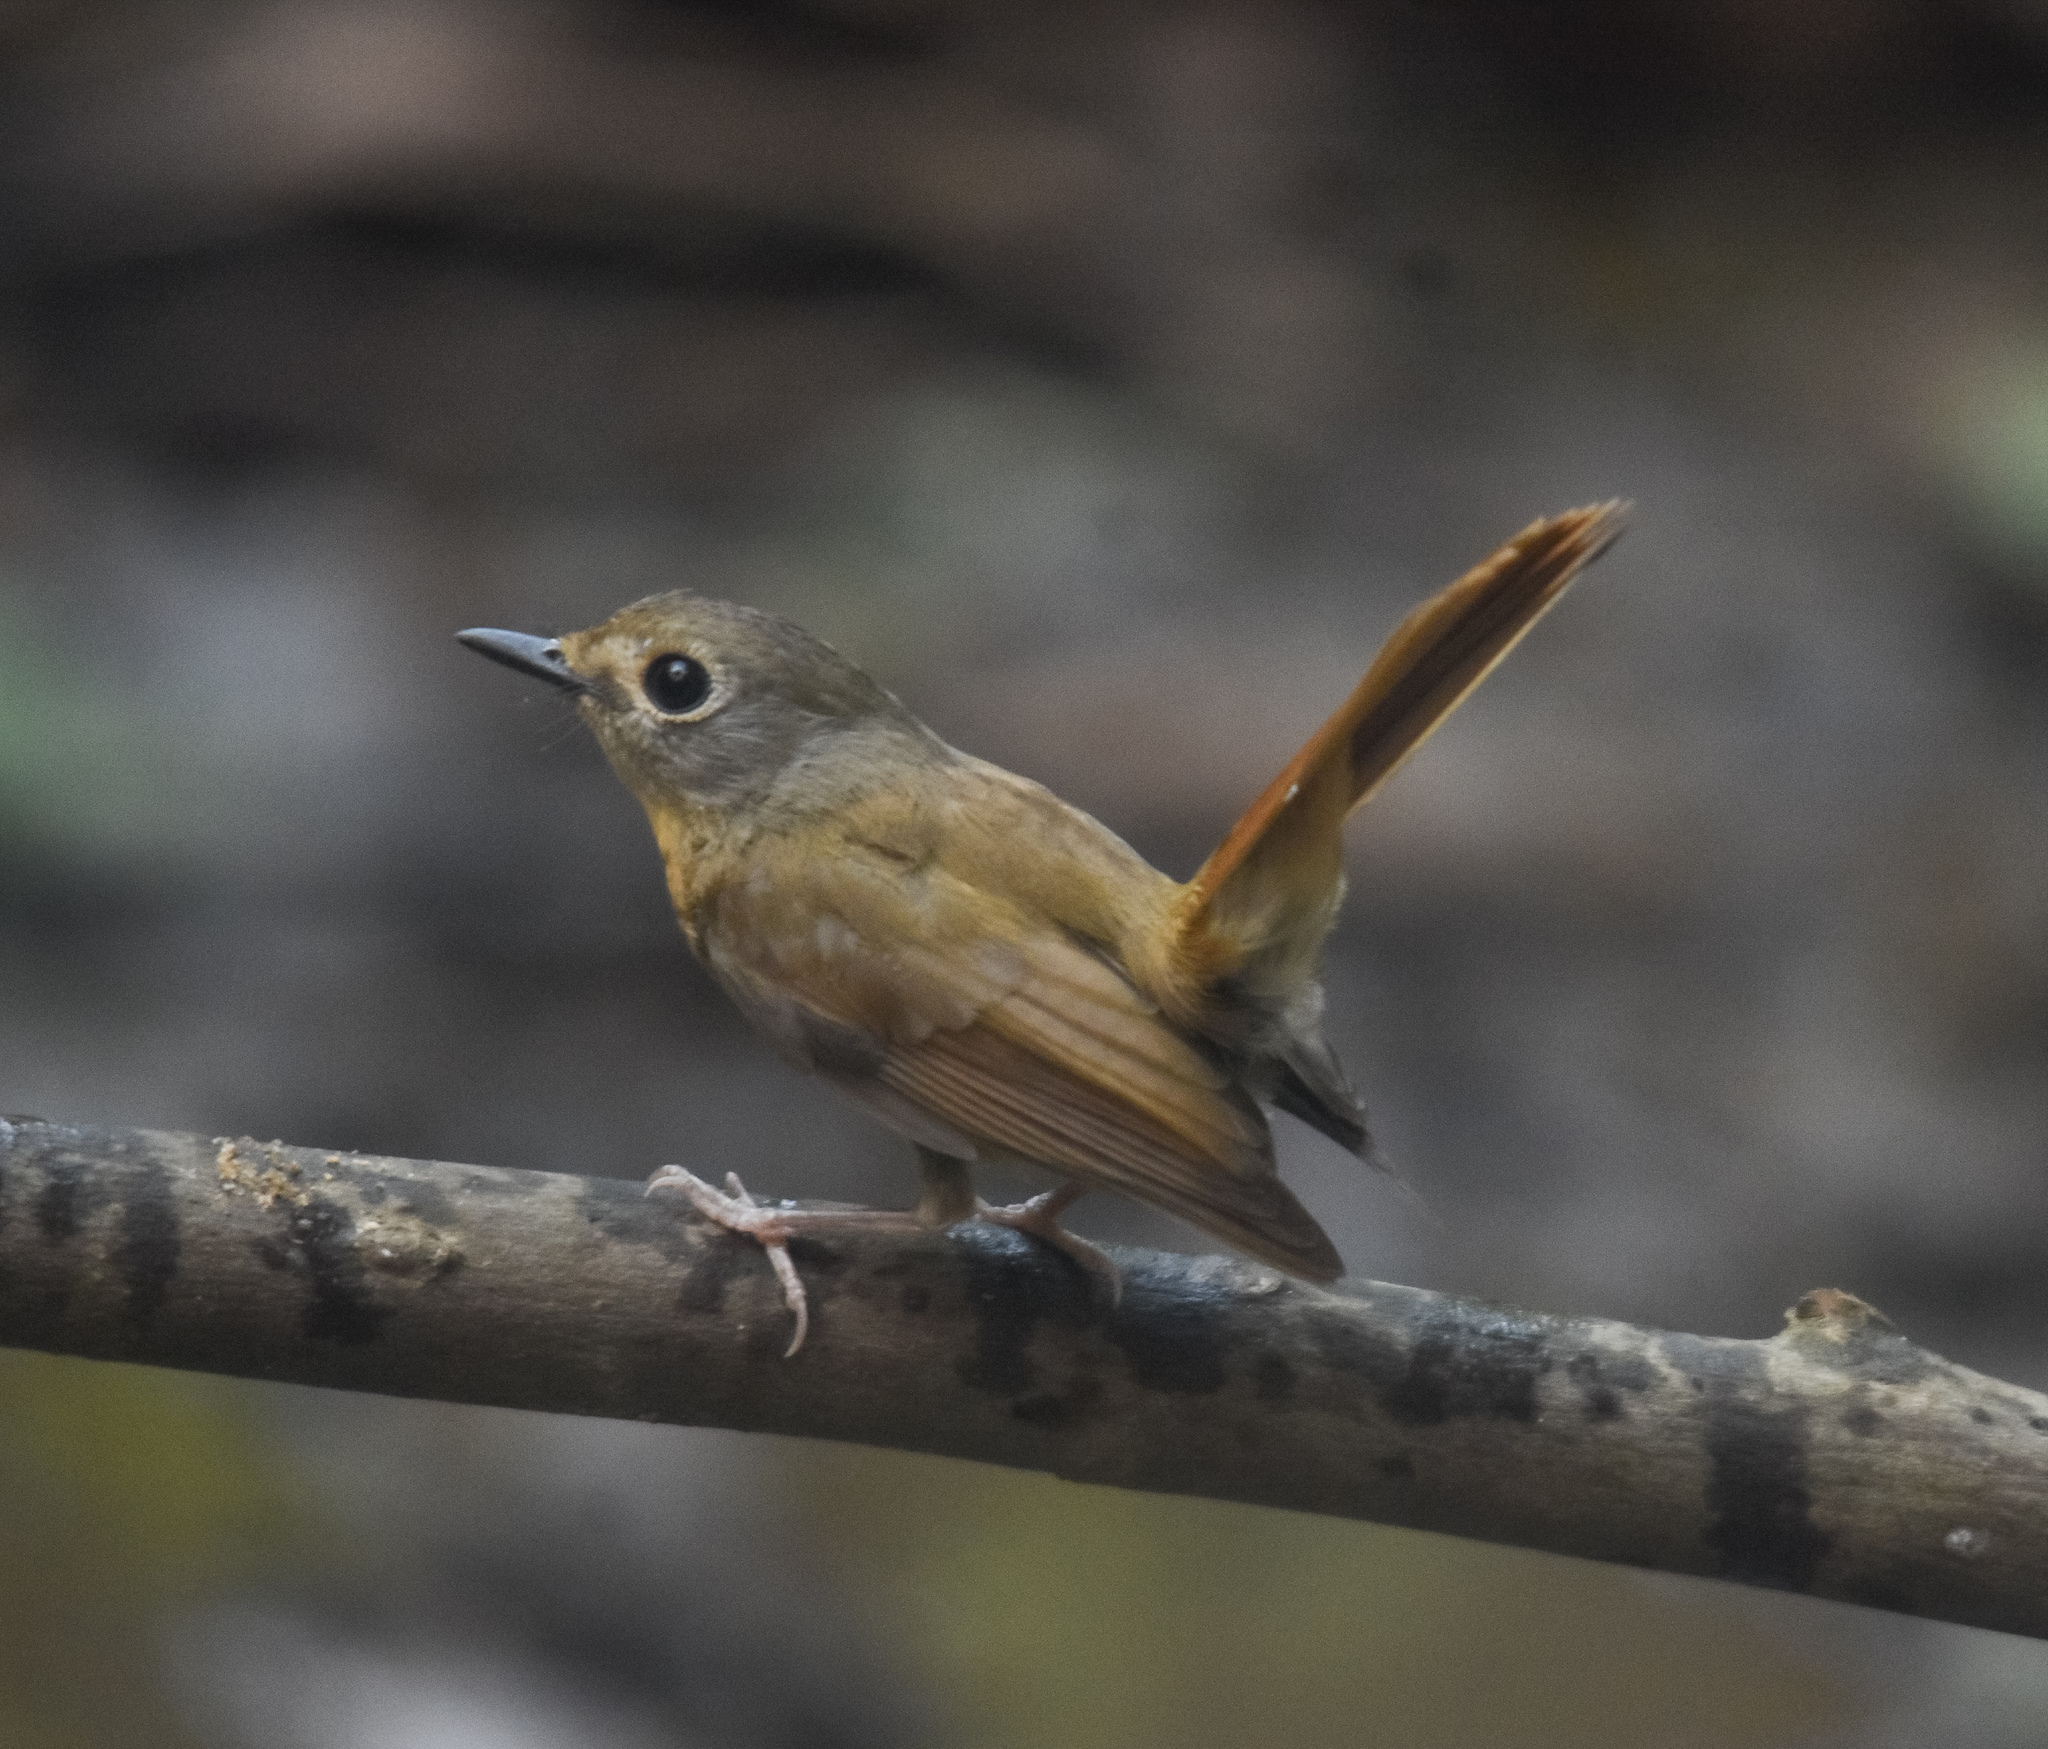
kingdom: Animalia
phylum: Chordata
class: Aves
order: Passeriformes
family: Muscicapidae
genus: Cyornis
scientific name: Cyornis poliogenys
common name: Pale-chinned blue flycatcher
